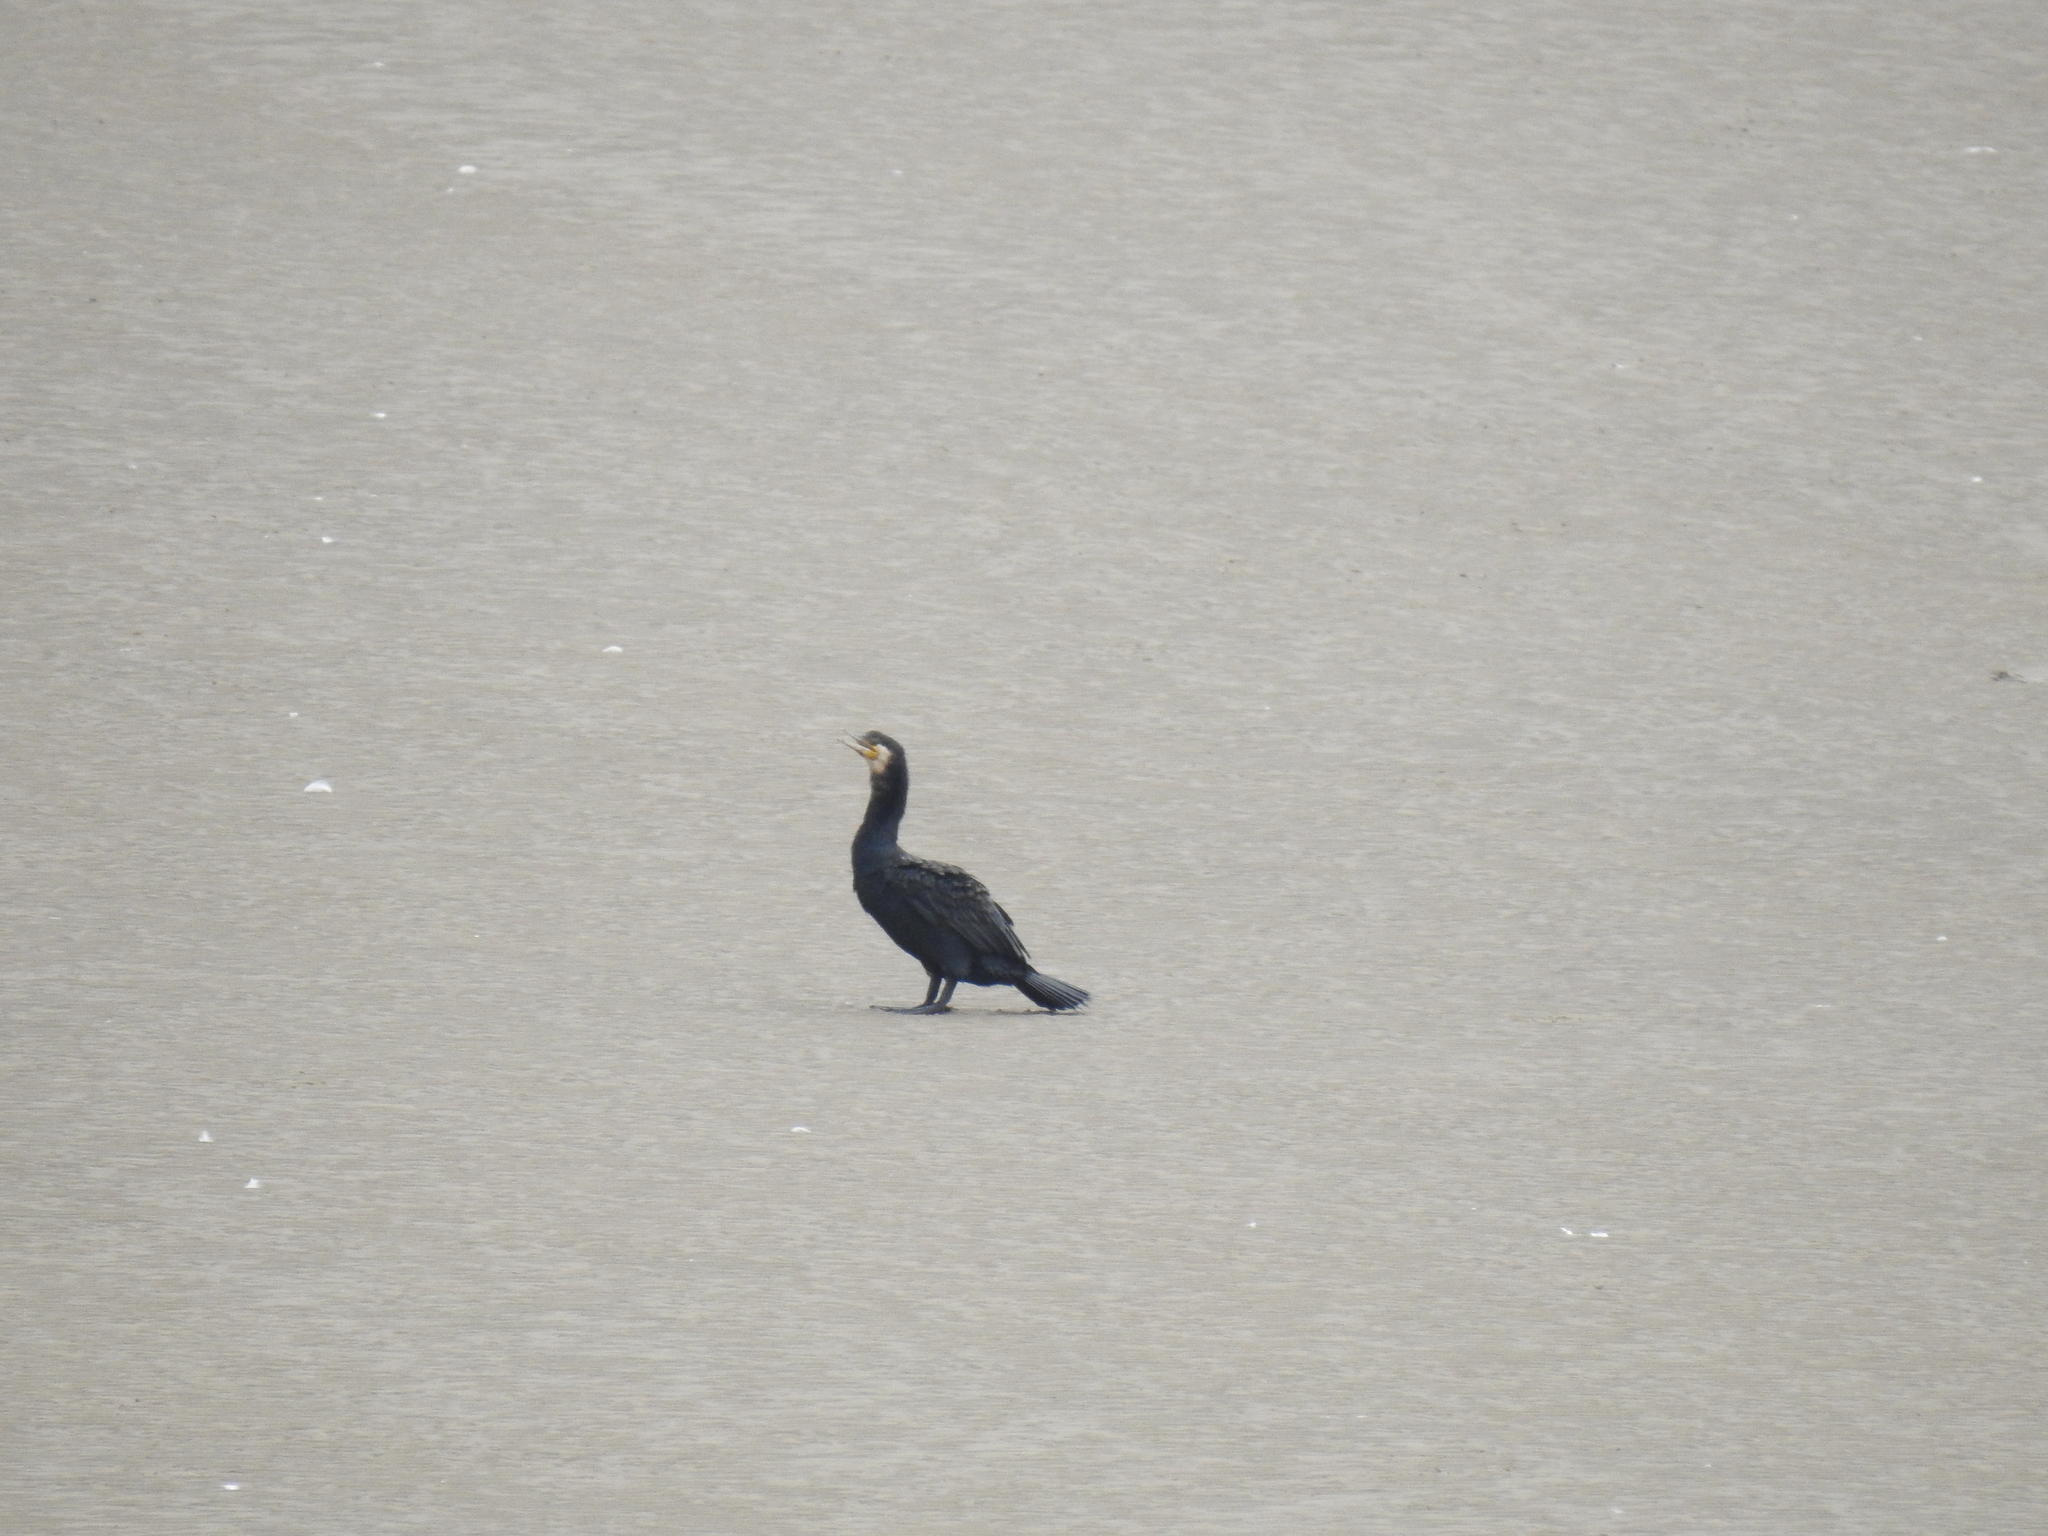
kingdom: Animalia
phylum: Chordata
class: Aves
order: Suliformes
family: Phalacrocoracidae
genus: Phalacrocorax
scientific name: Phalacrocorax carbo
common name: Great cormorant
